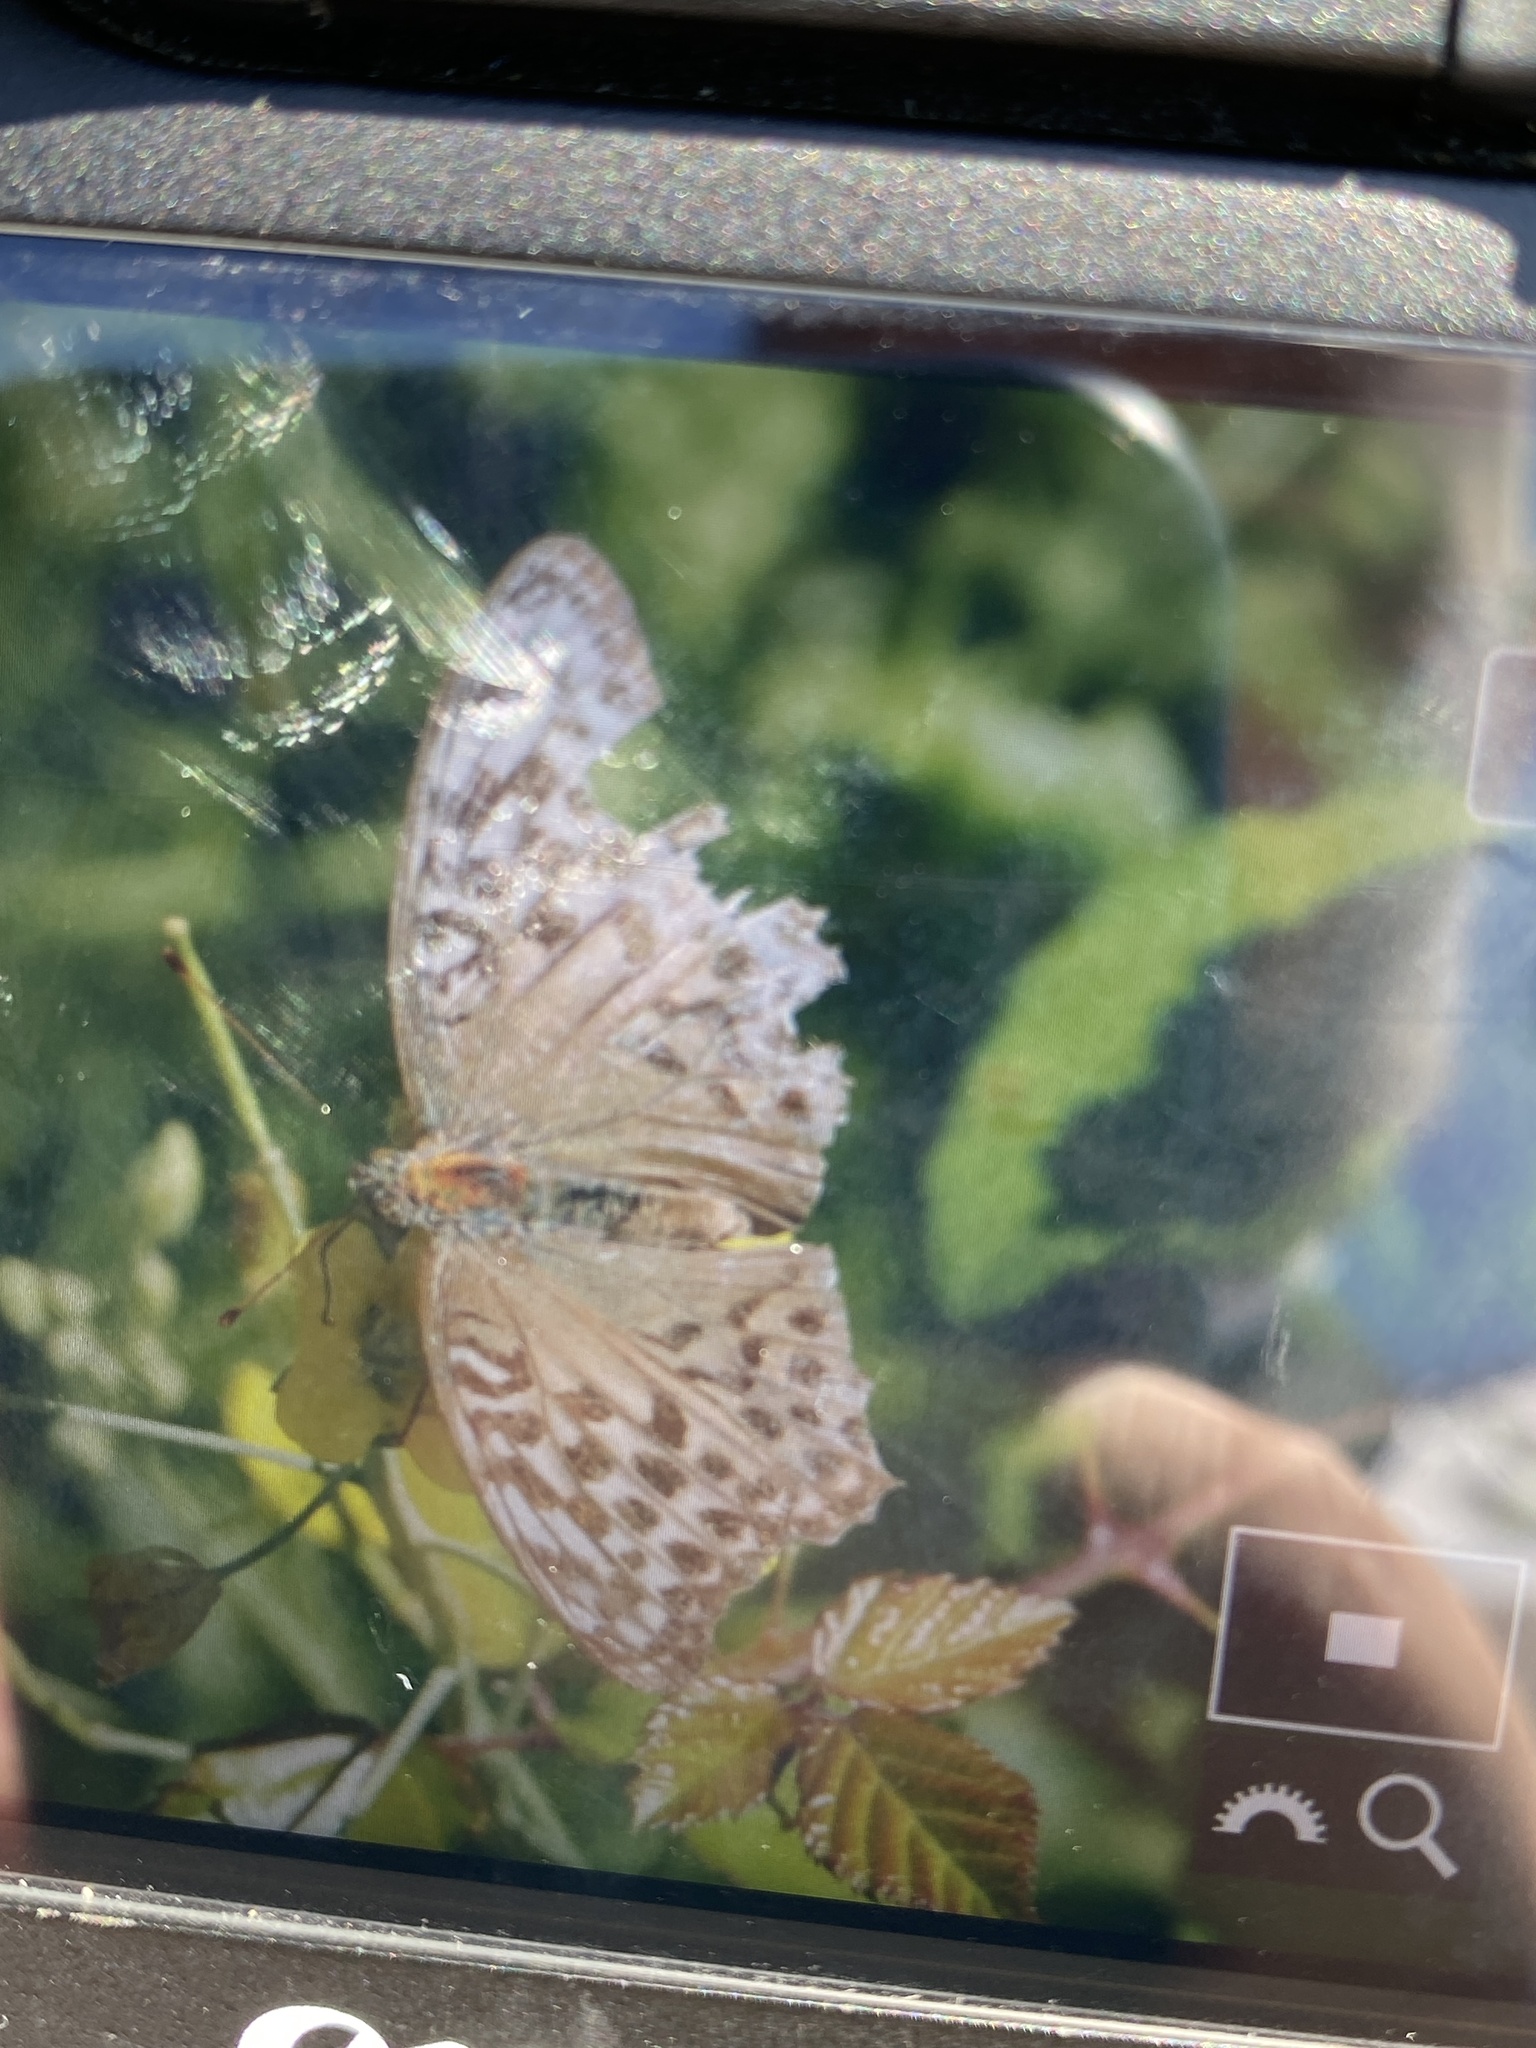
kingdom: Animalia
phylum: Arthropoda
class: Insecta
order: Lepidoptera
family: Nymphalidae
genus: Argynnis
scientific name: Argynnis paphia
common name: Silver-washed fritillary
